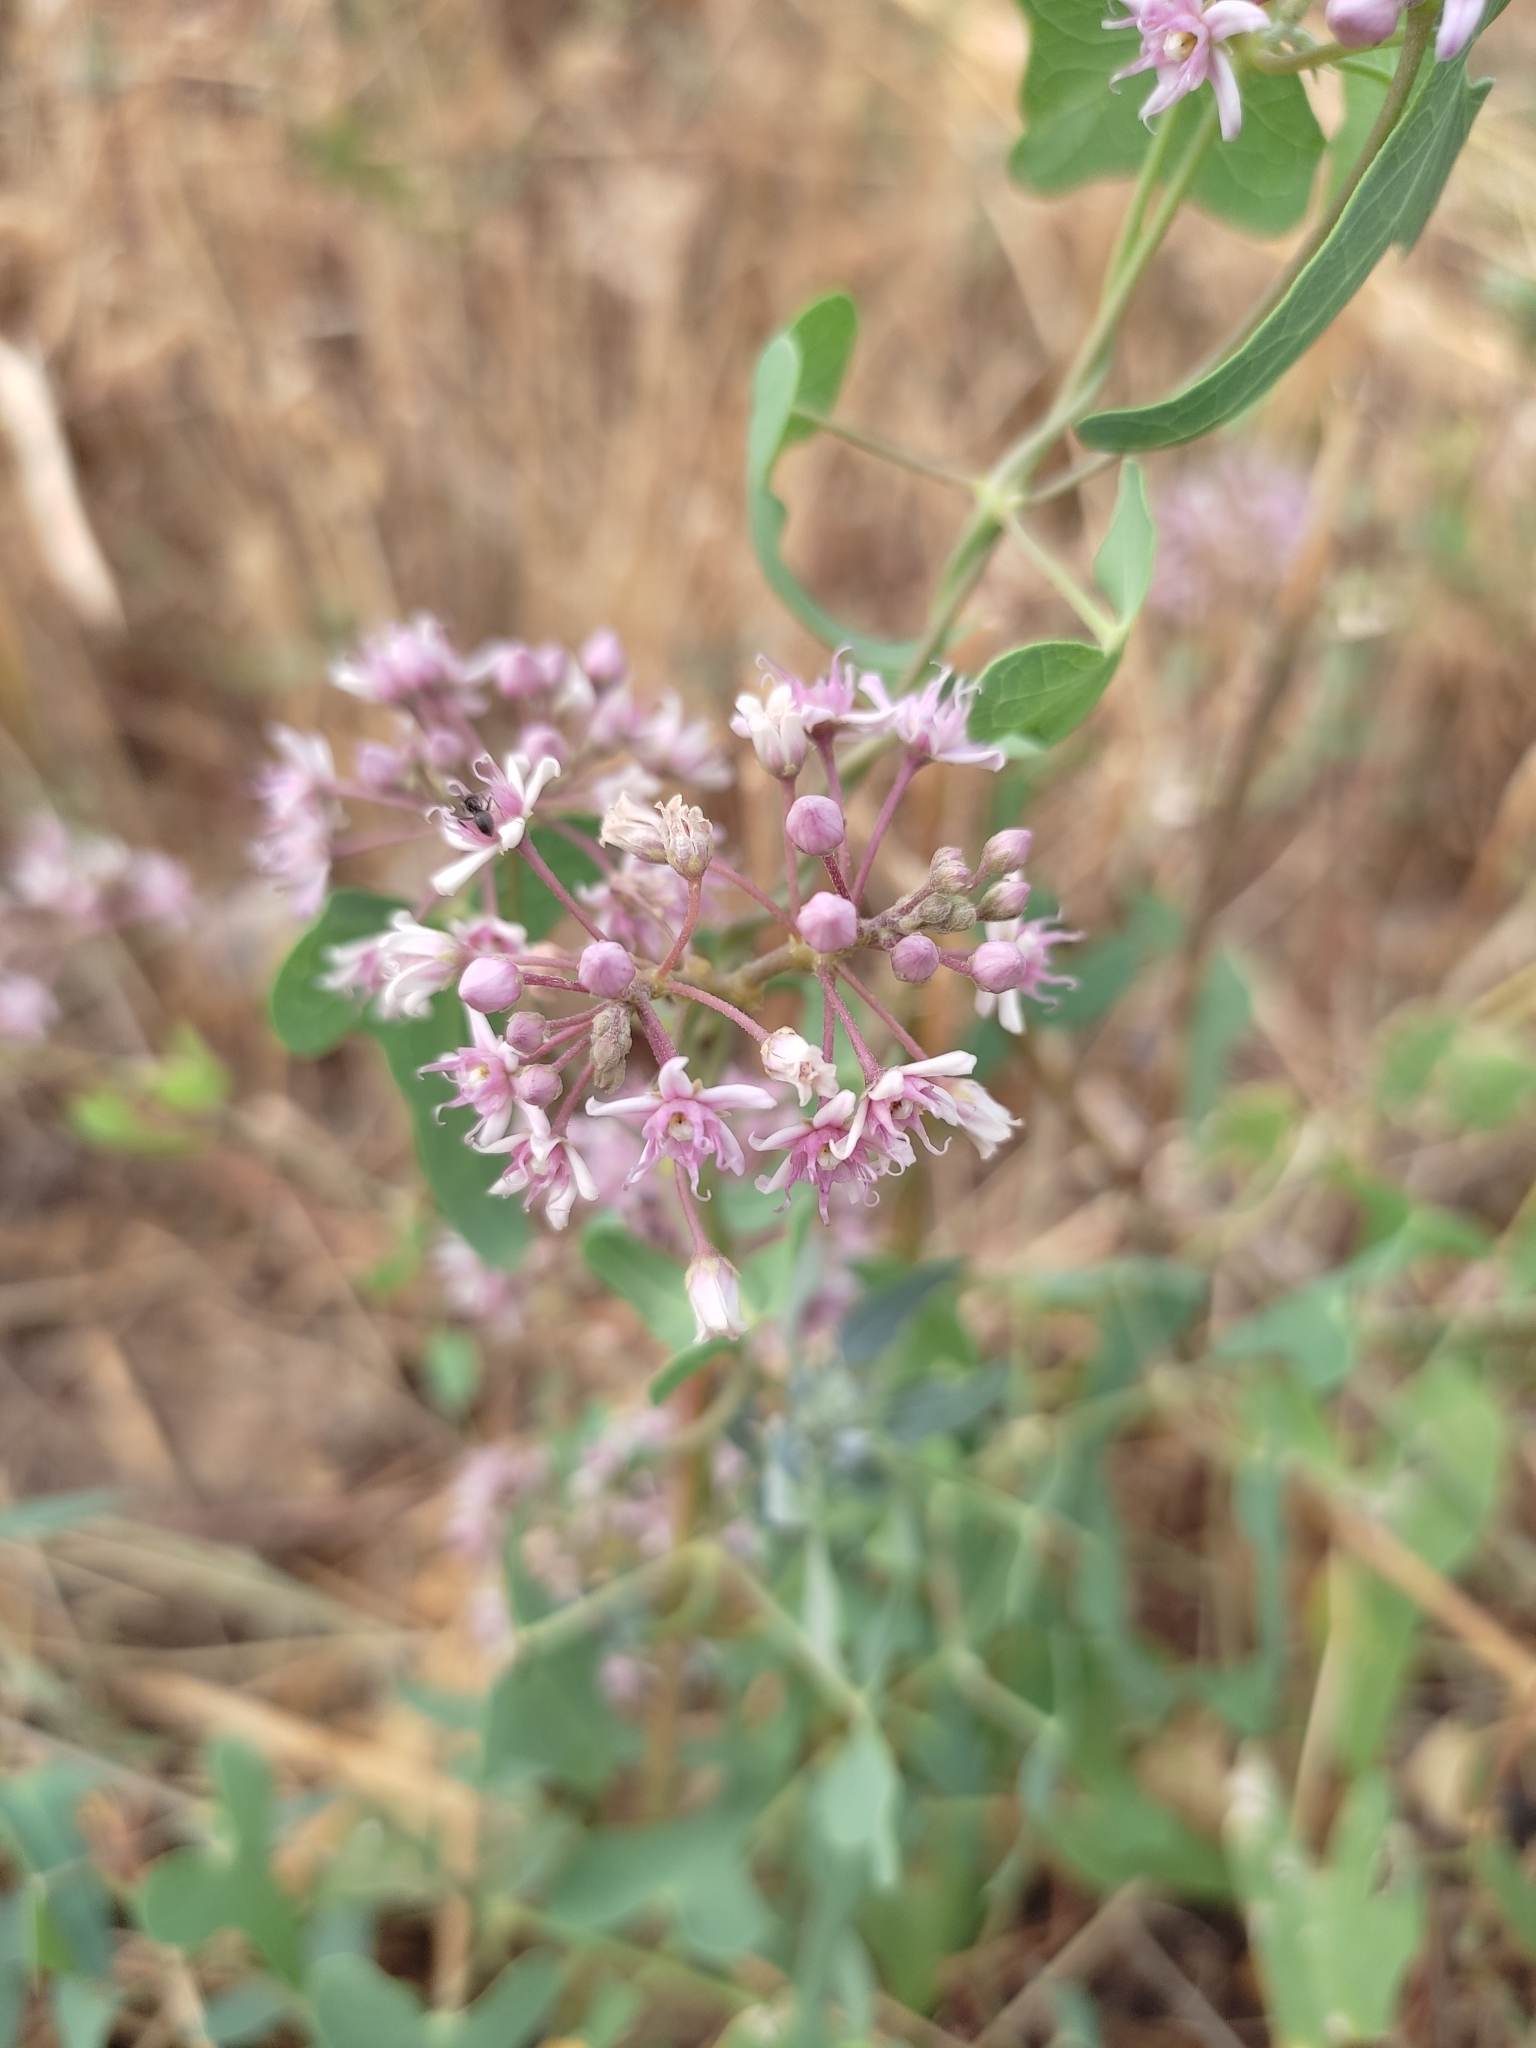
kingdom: Plantae
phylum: Tracheophyta
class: Magnoliopsida
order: Gentianales
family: Apocynaceae
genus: Cynanchum
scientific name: Cynanchum acutum
